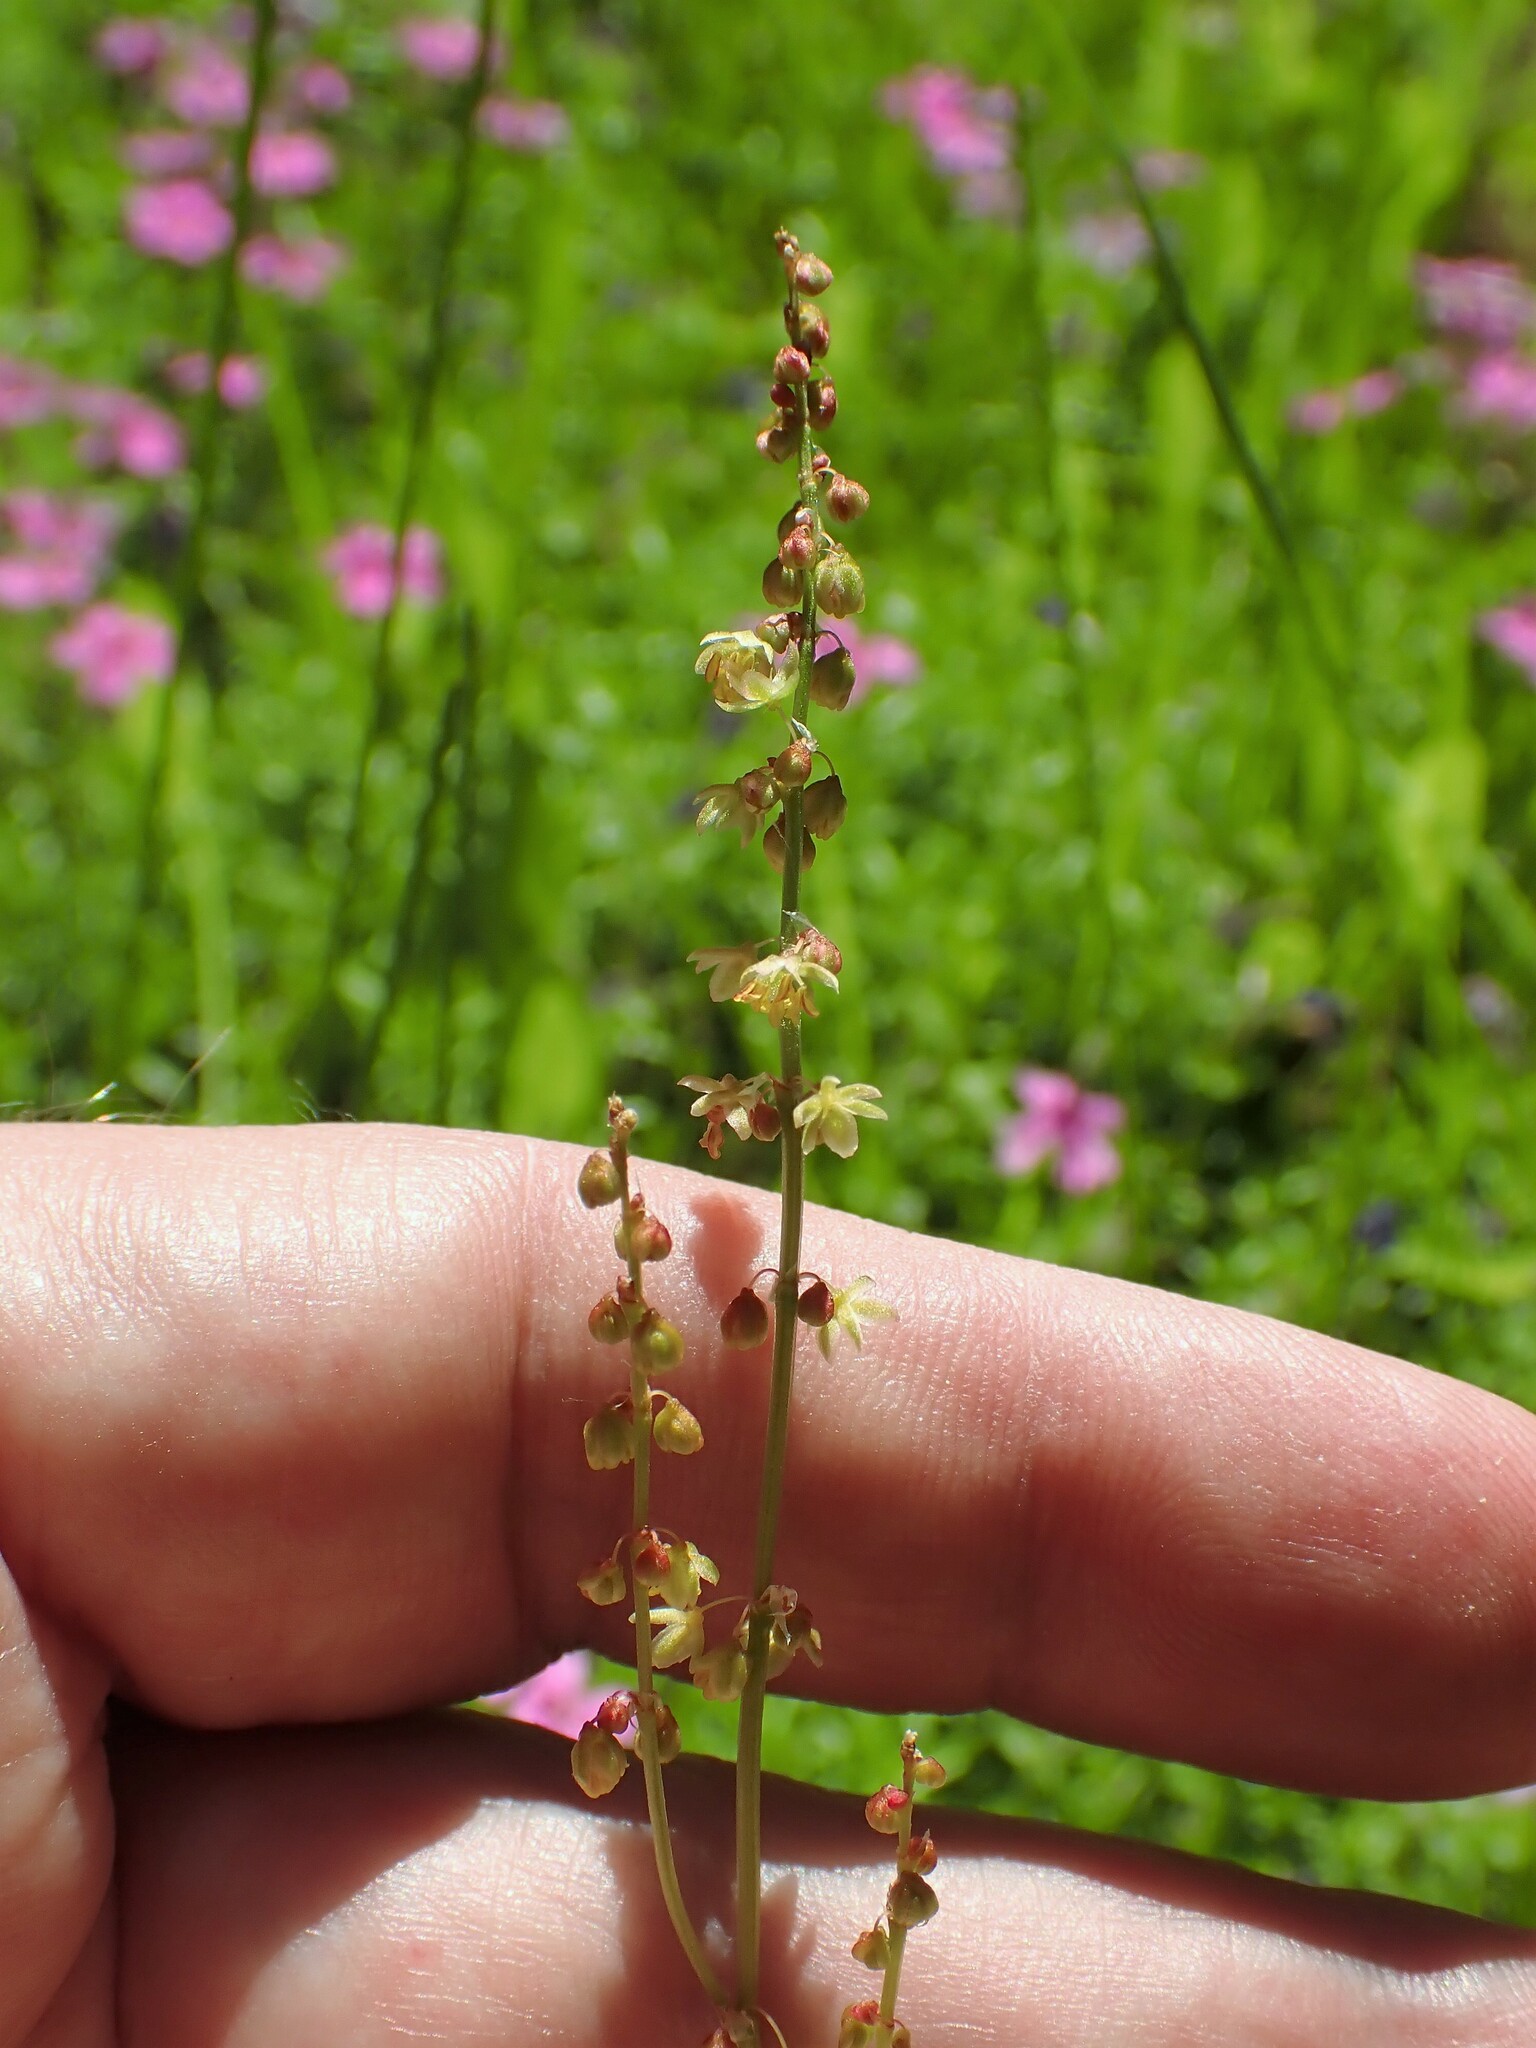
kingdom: Plantae
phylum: Tracheophyta
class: Magnoliopsida
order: Caryophyllales
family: Polygonaceae
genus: Rumex
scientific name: Rumex acetosella
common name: Common sheep sorrel
